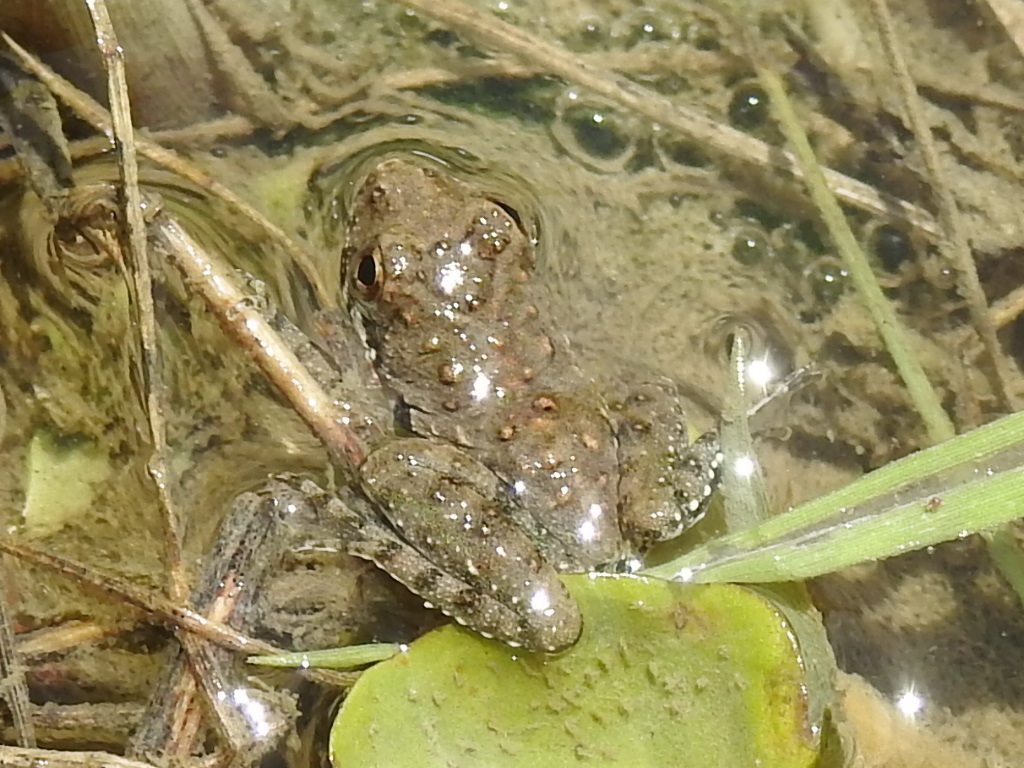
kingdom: Animalia
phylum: Chordata
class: Amphibia
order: Anura
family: Hylidae
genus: Acris
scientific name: Acris blanchardi
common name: Blanchard's cricket frog
